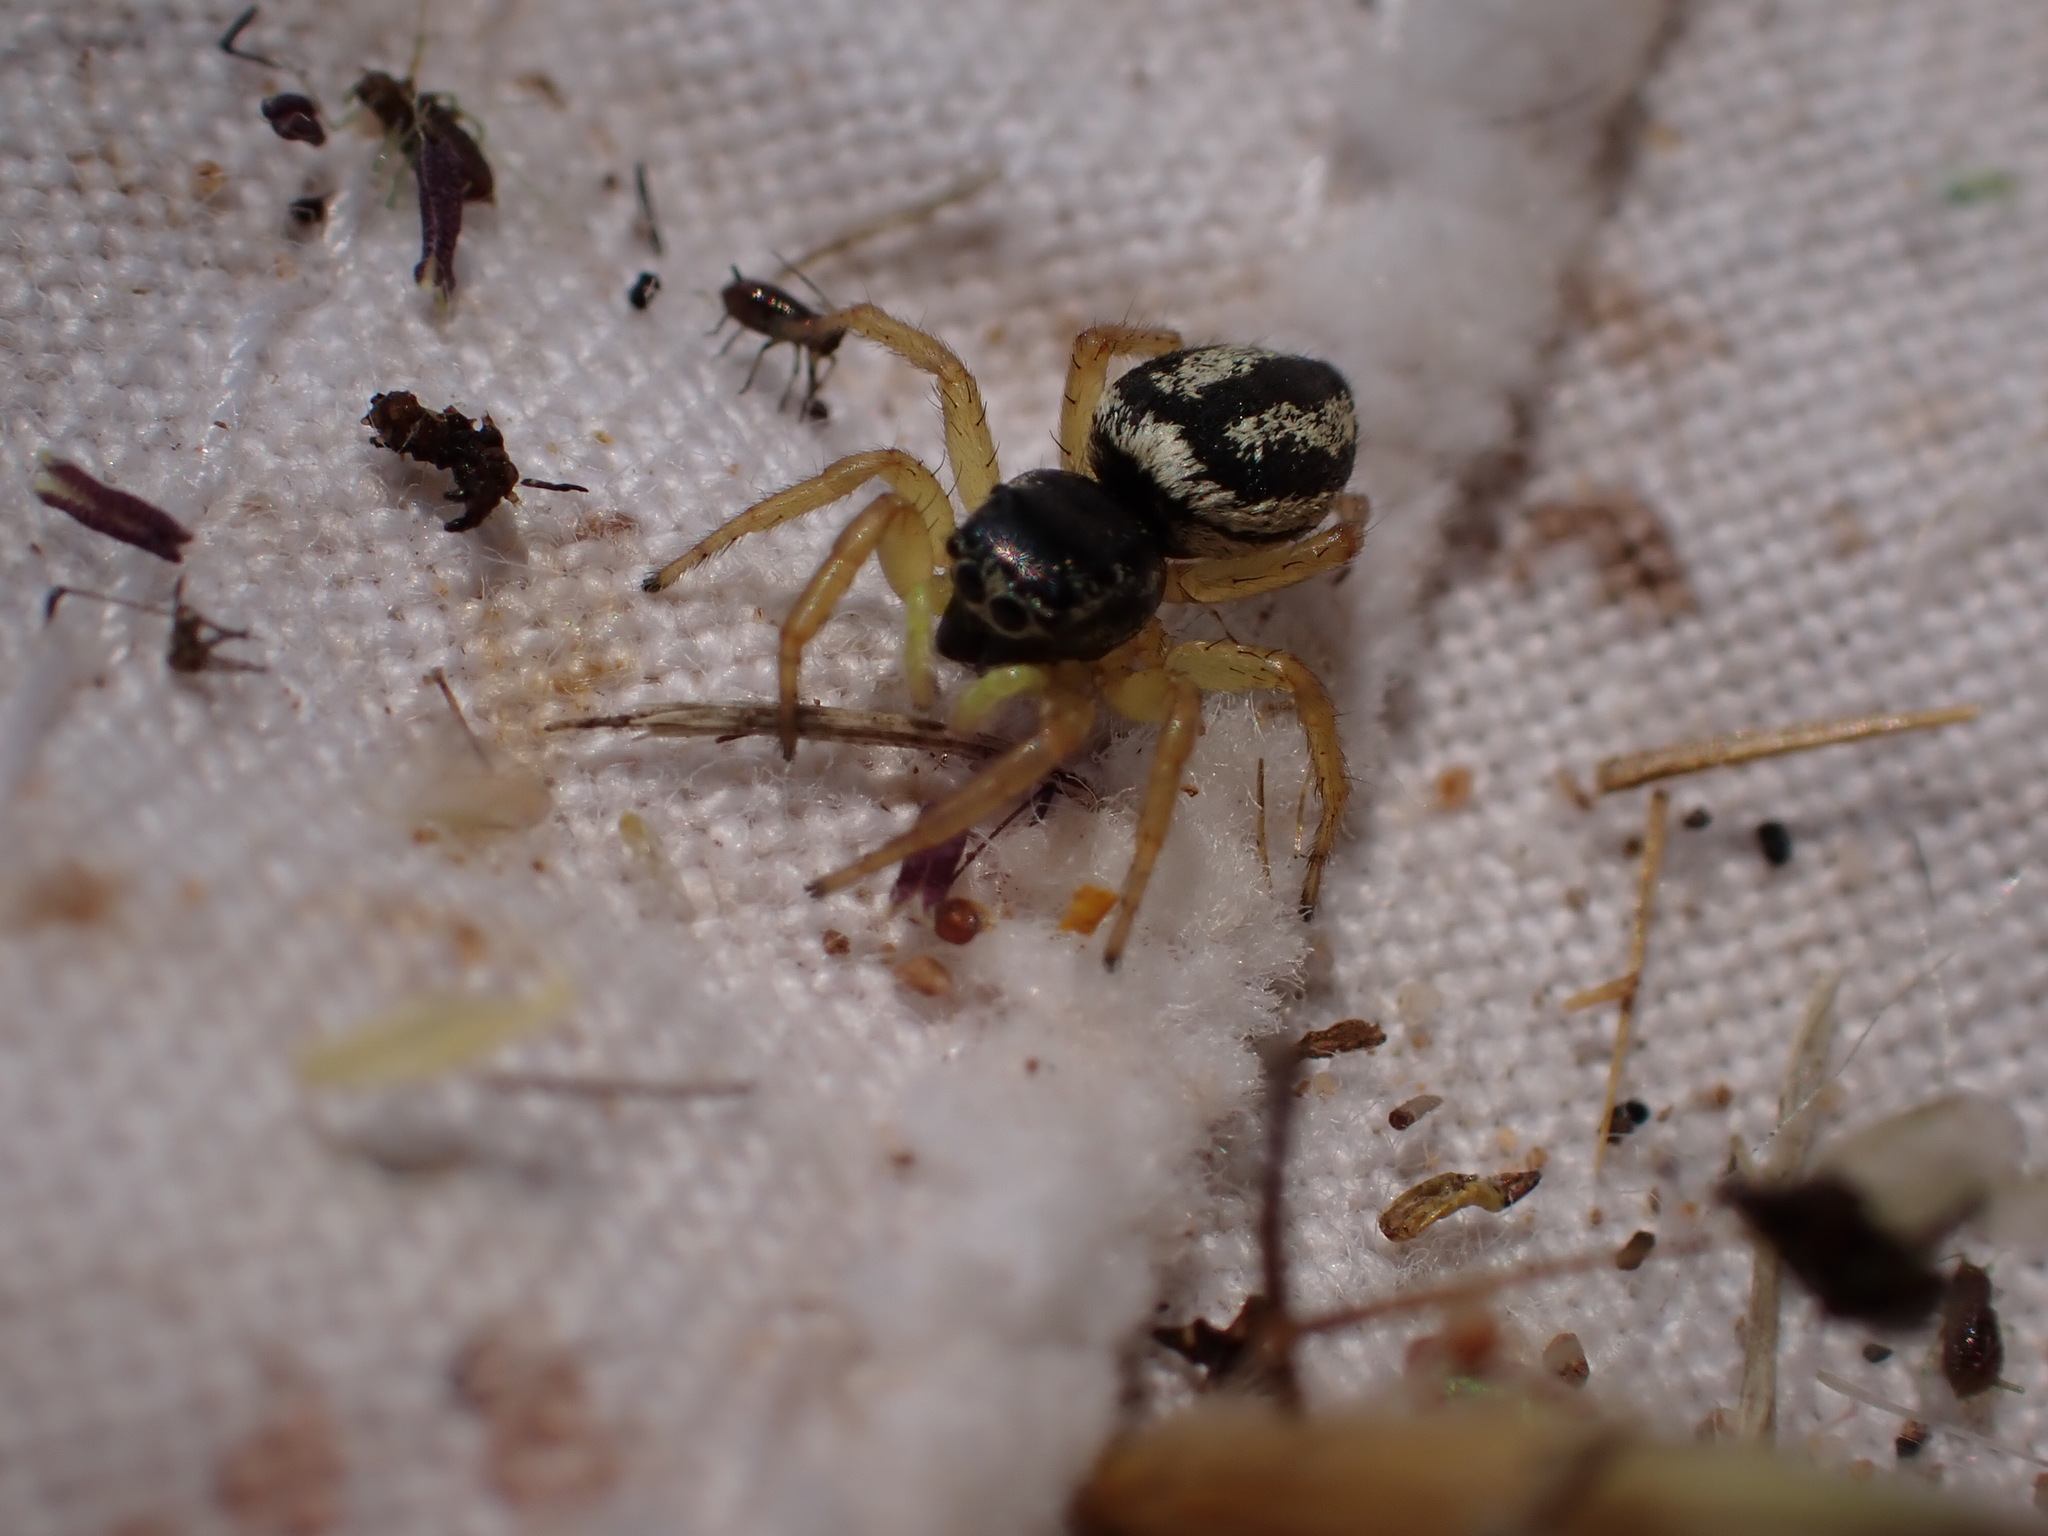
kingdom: Animalia
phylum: Arthropoda
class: Arachnida
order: Araneae
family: Salticidae
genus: Heliophanus
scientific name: Heliophanus melinus
